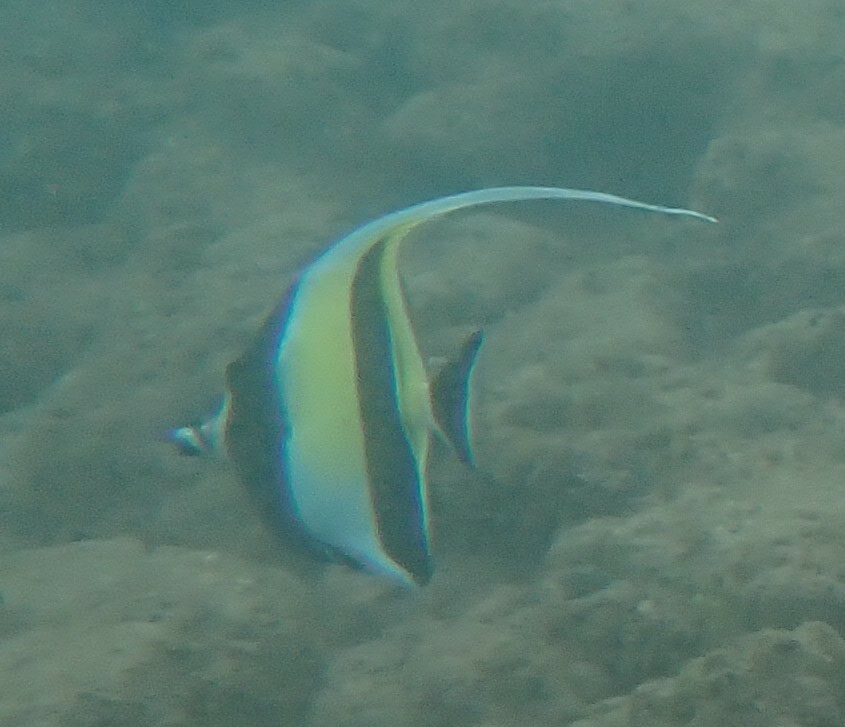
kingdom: Animalia
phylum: Chordata
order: Perciformes
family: Zanclidae
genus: Zanclus
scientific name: Zanclus cornutus
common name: Moorish idol
